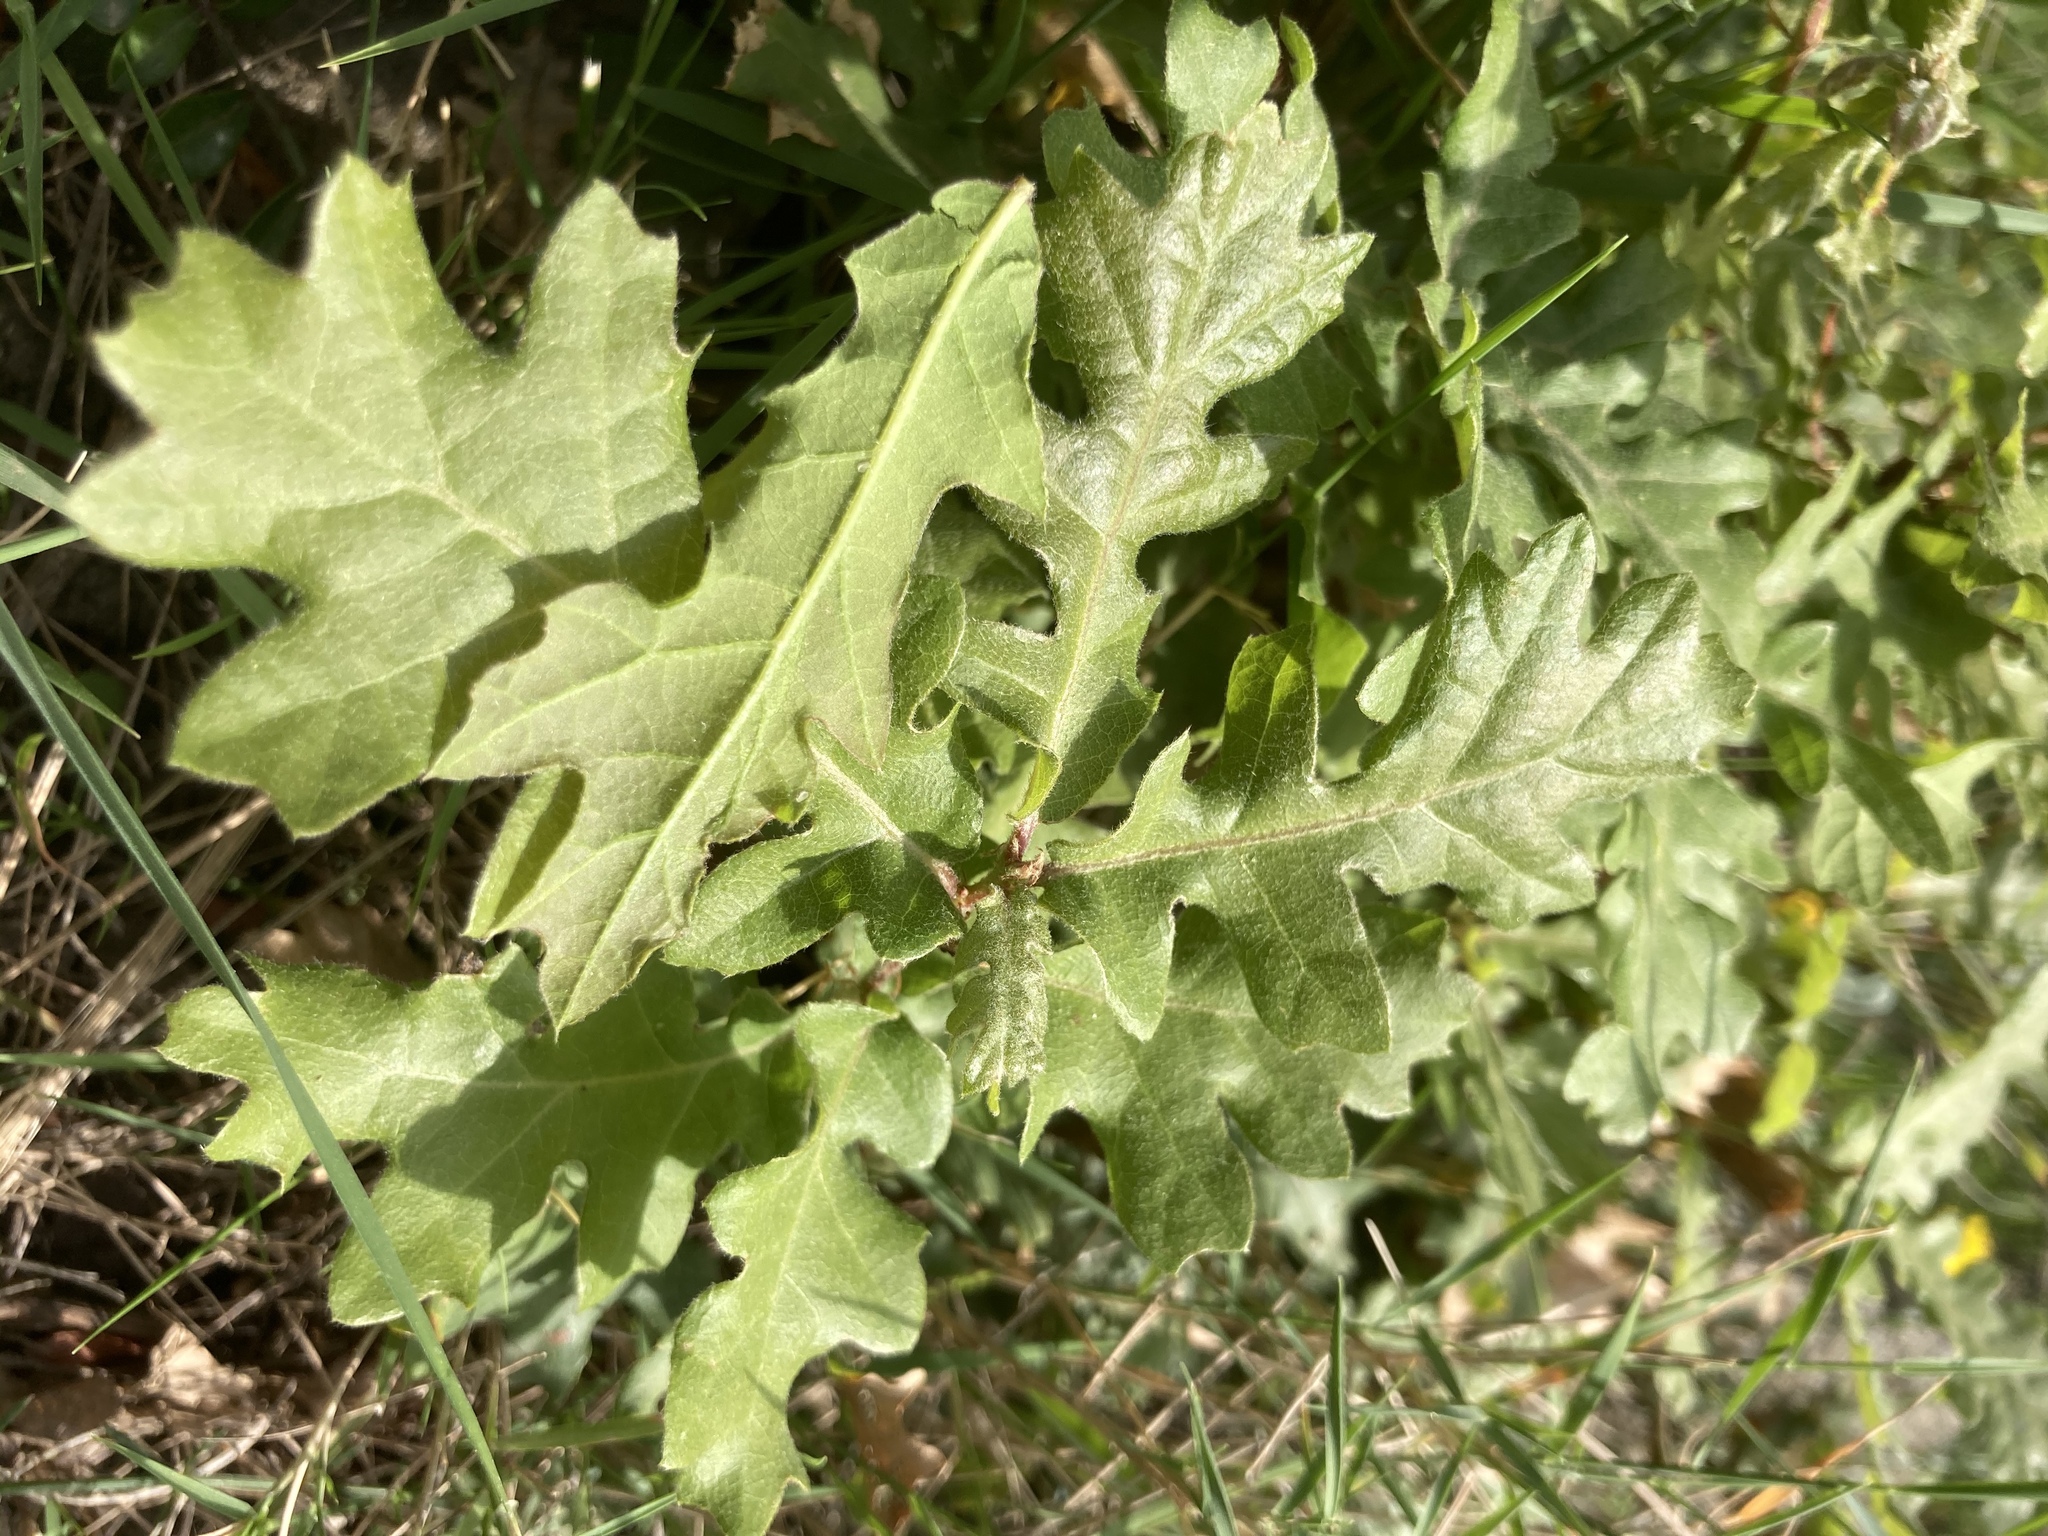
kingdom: Plantae
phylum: Tracheophyta
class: Magnoliopsida
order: Fagales
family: Fagaceae
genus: Quercus
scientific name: Quercus pubescens
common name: Downy oak
